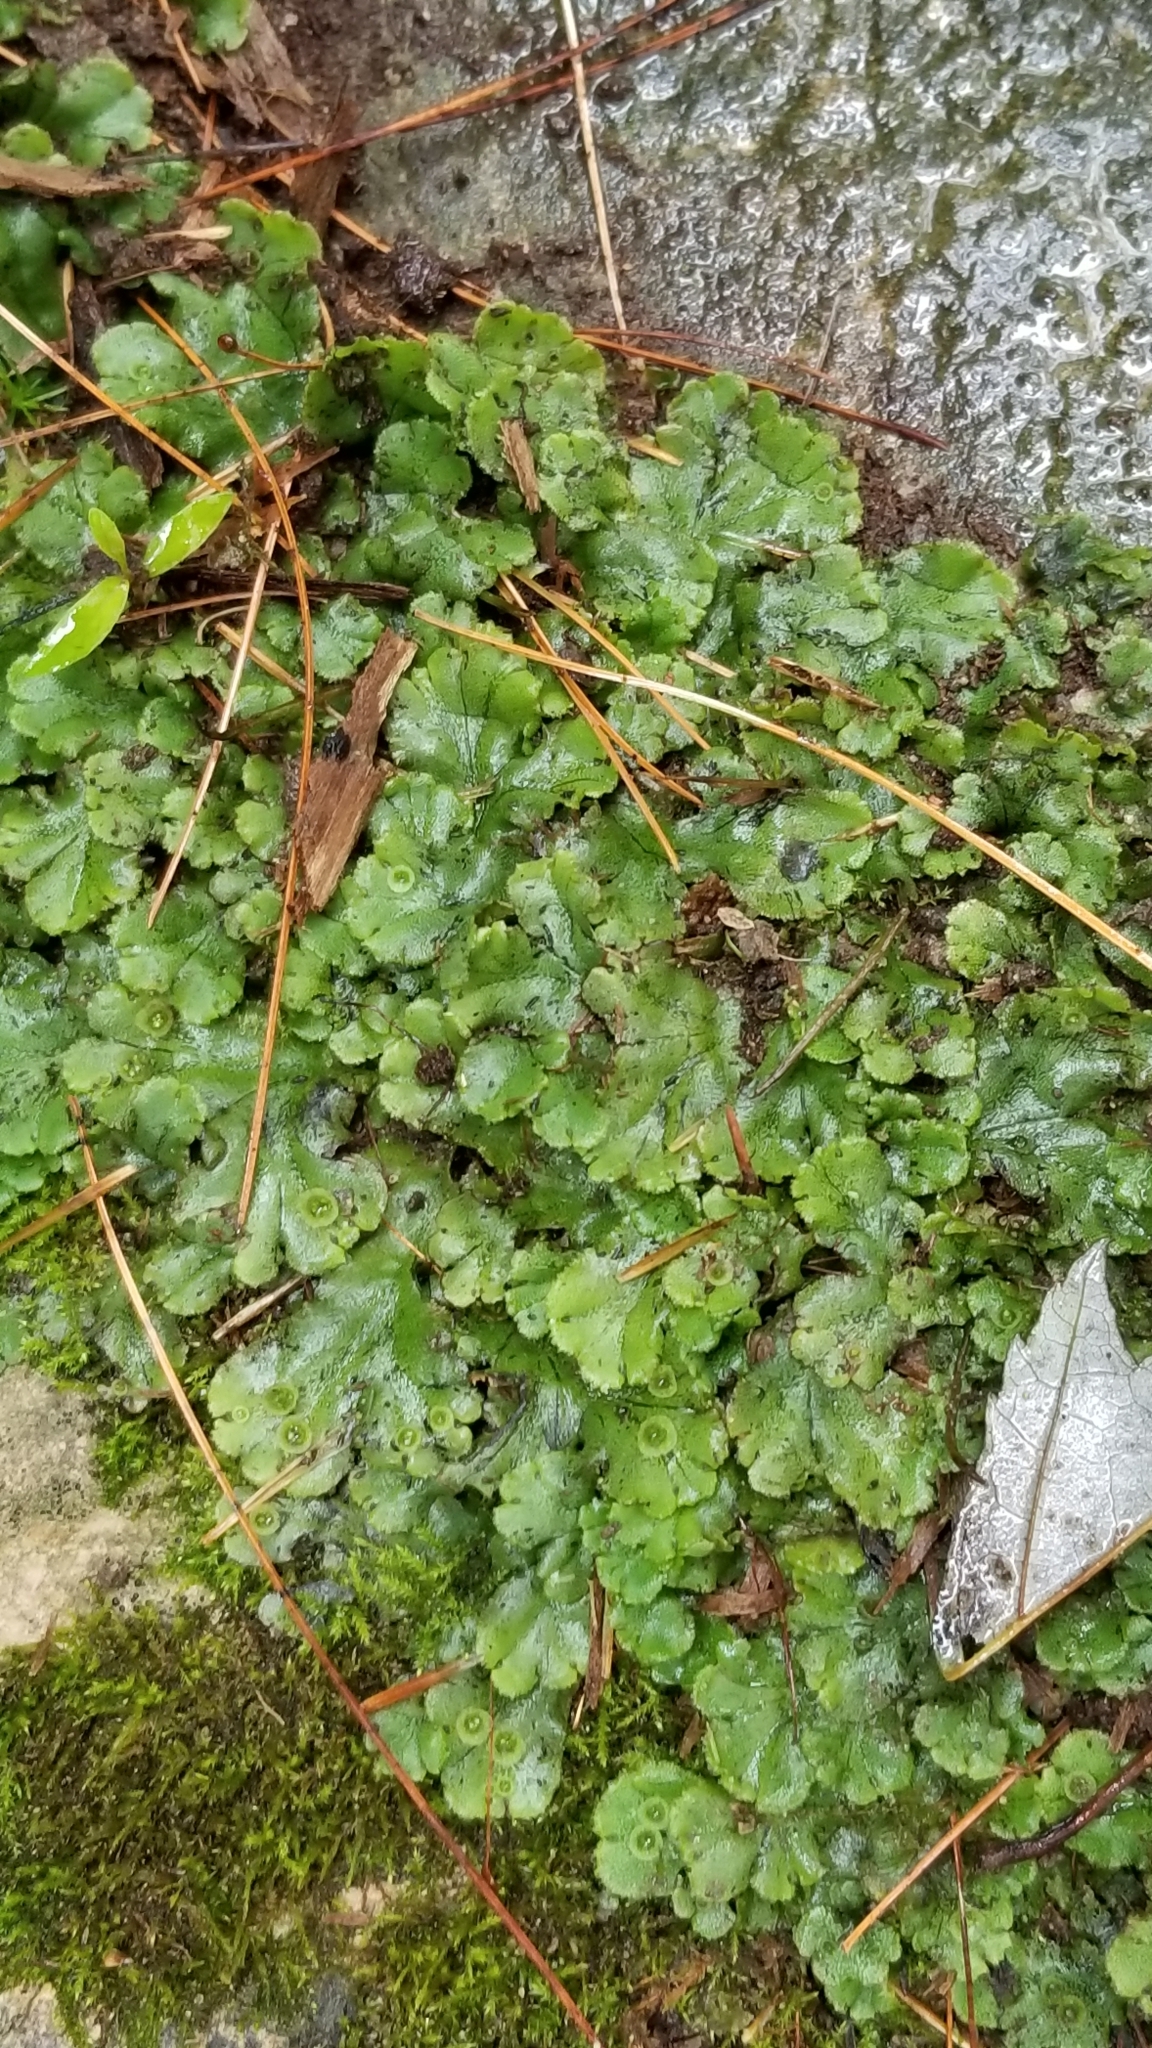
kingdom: Plantae
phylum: Marchantiophyta
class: Marchantiopsida
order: Marchantiales
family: Marchantiaceae
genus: Marchantia
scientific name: Marchantia polymorpha
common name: Common liverwort
